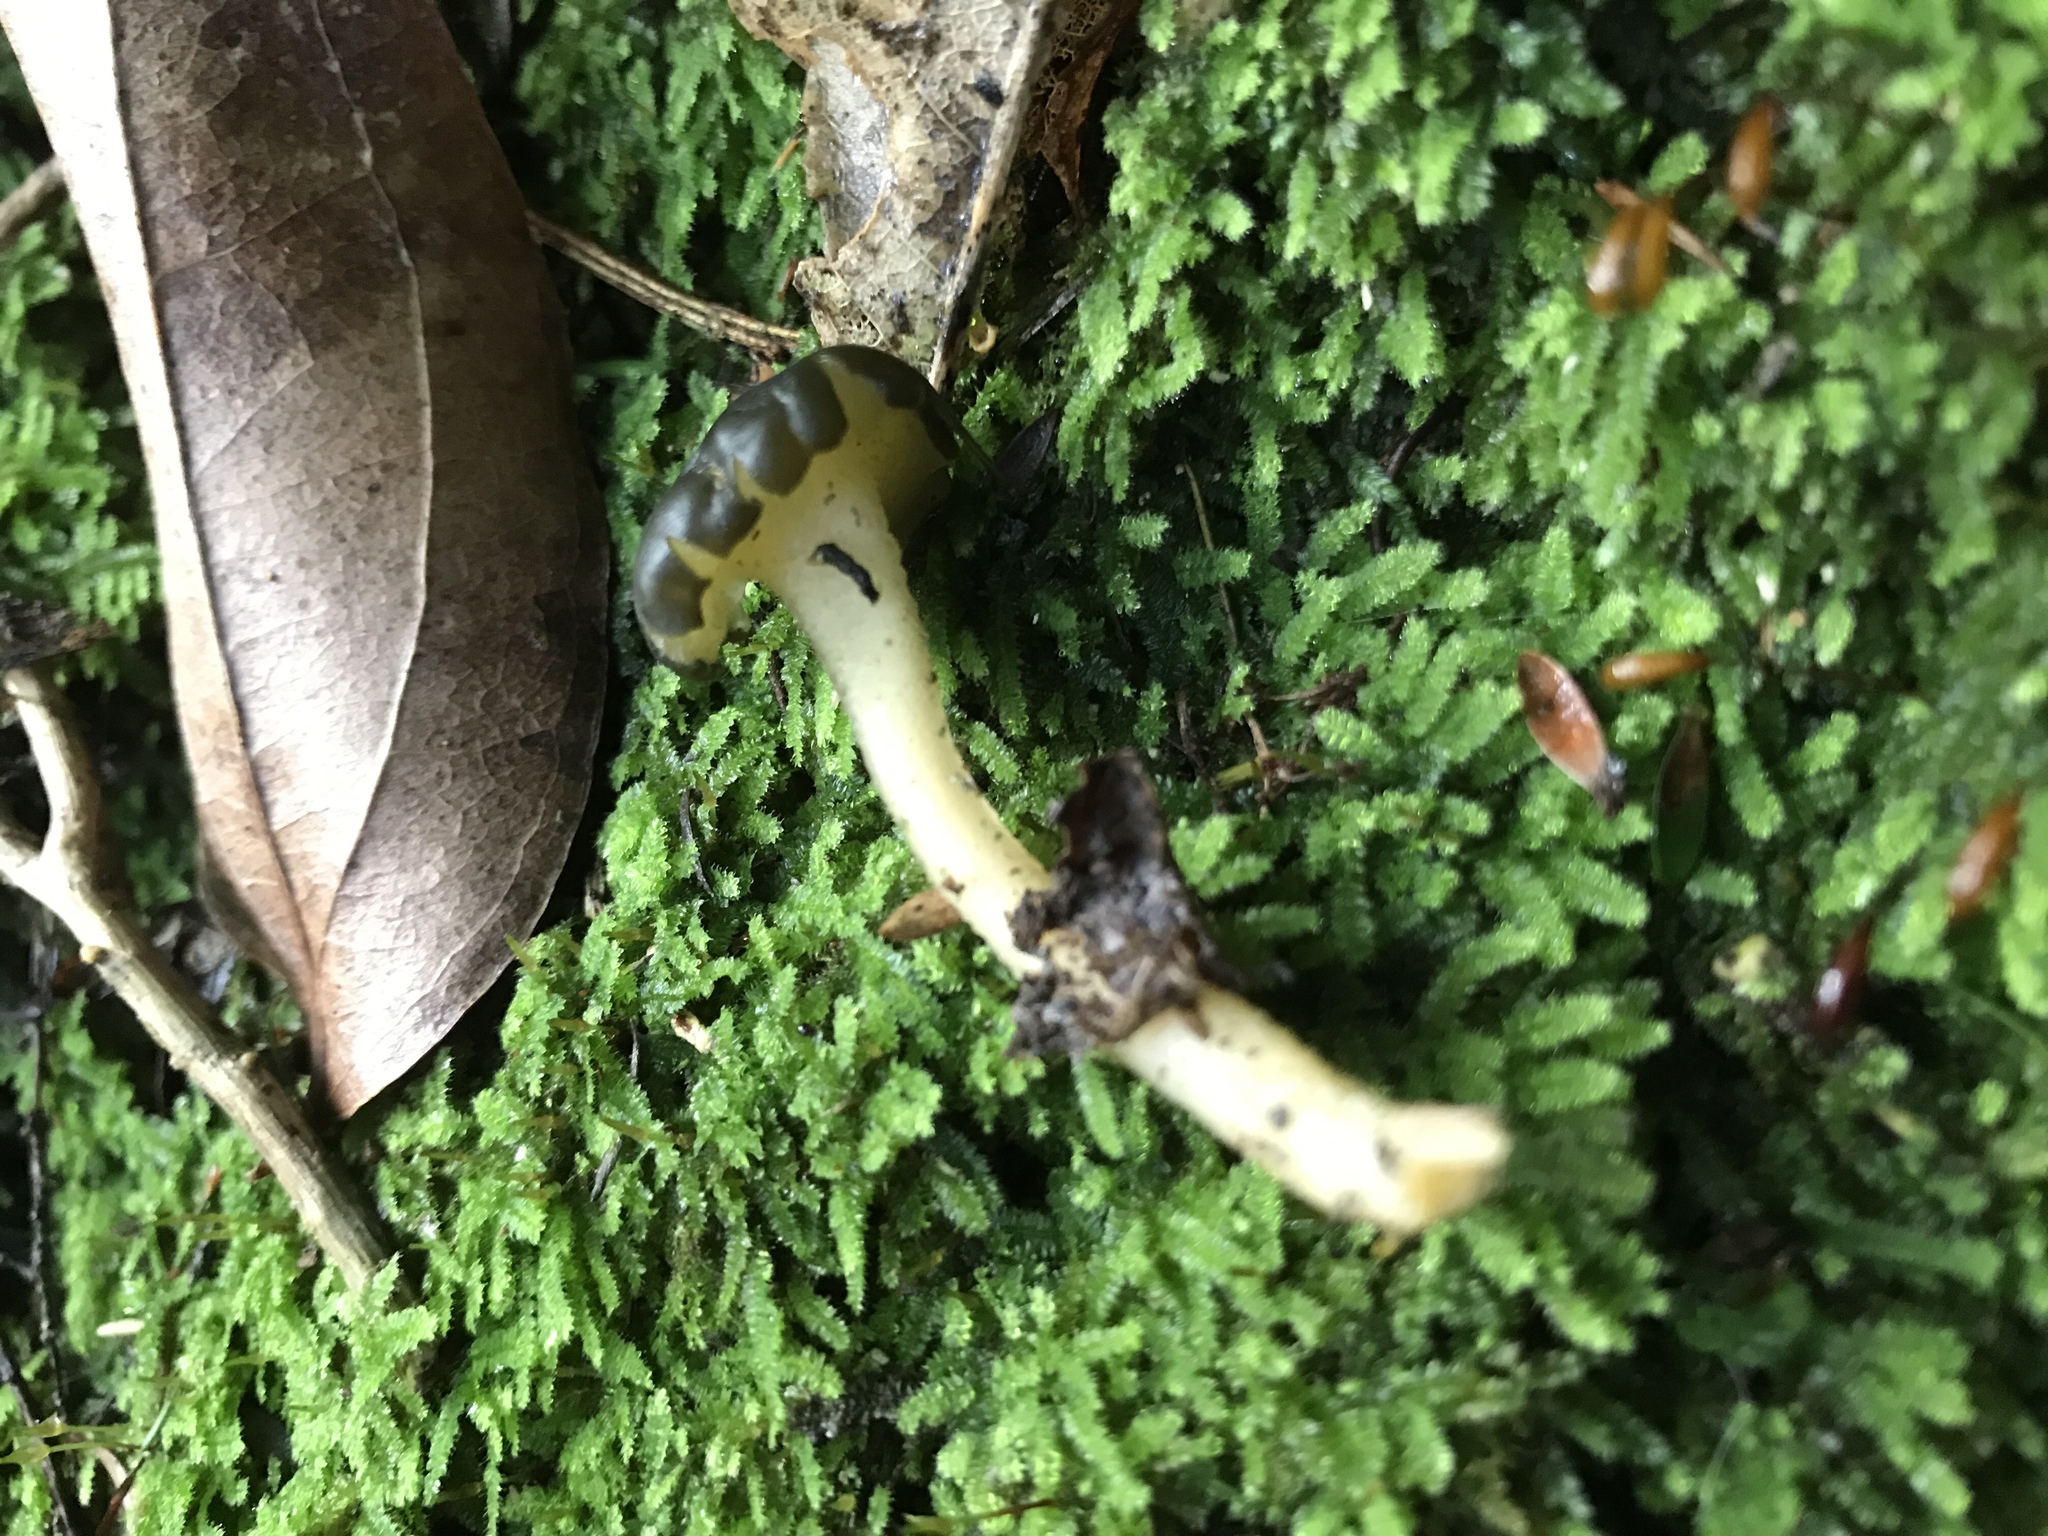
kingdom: Fungi
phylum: Ascomycota
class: Leotiomycetes
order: Leotiales
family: Leotiaceae
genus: Leotia
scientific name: Leotia lubrica
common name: Jellybaby
